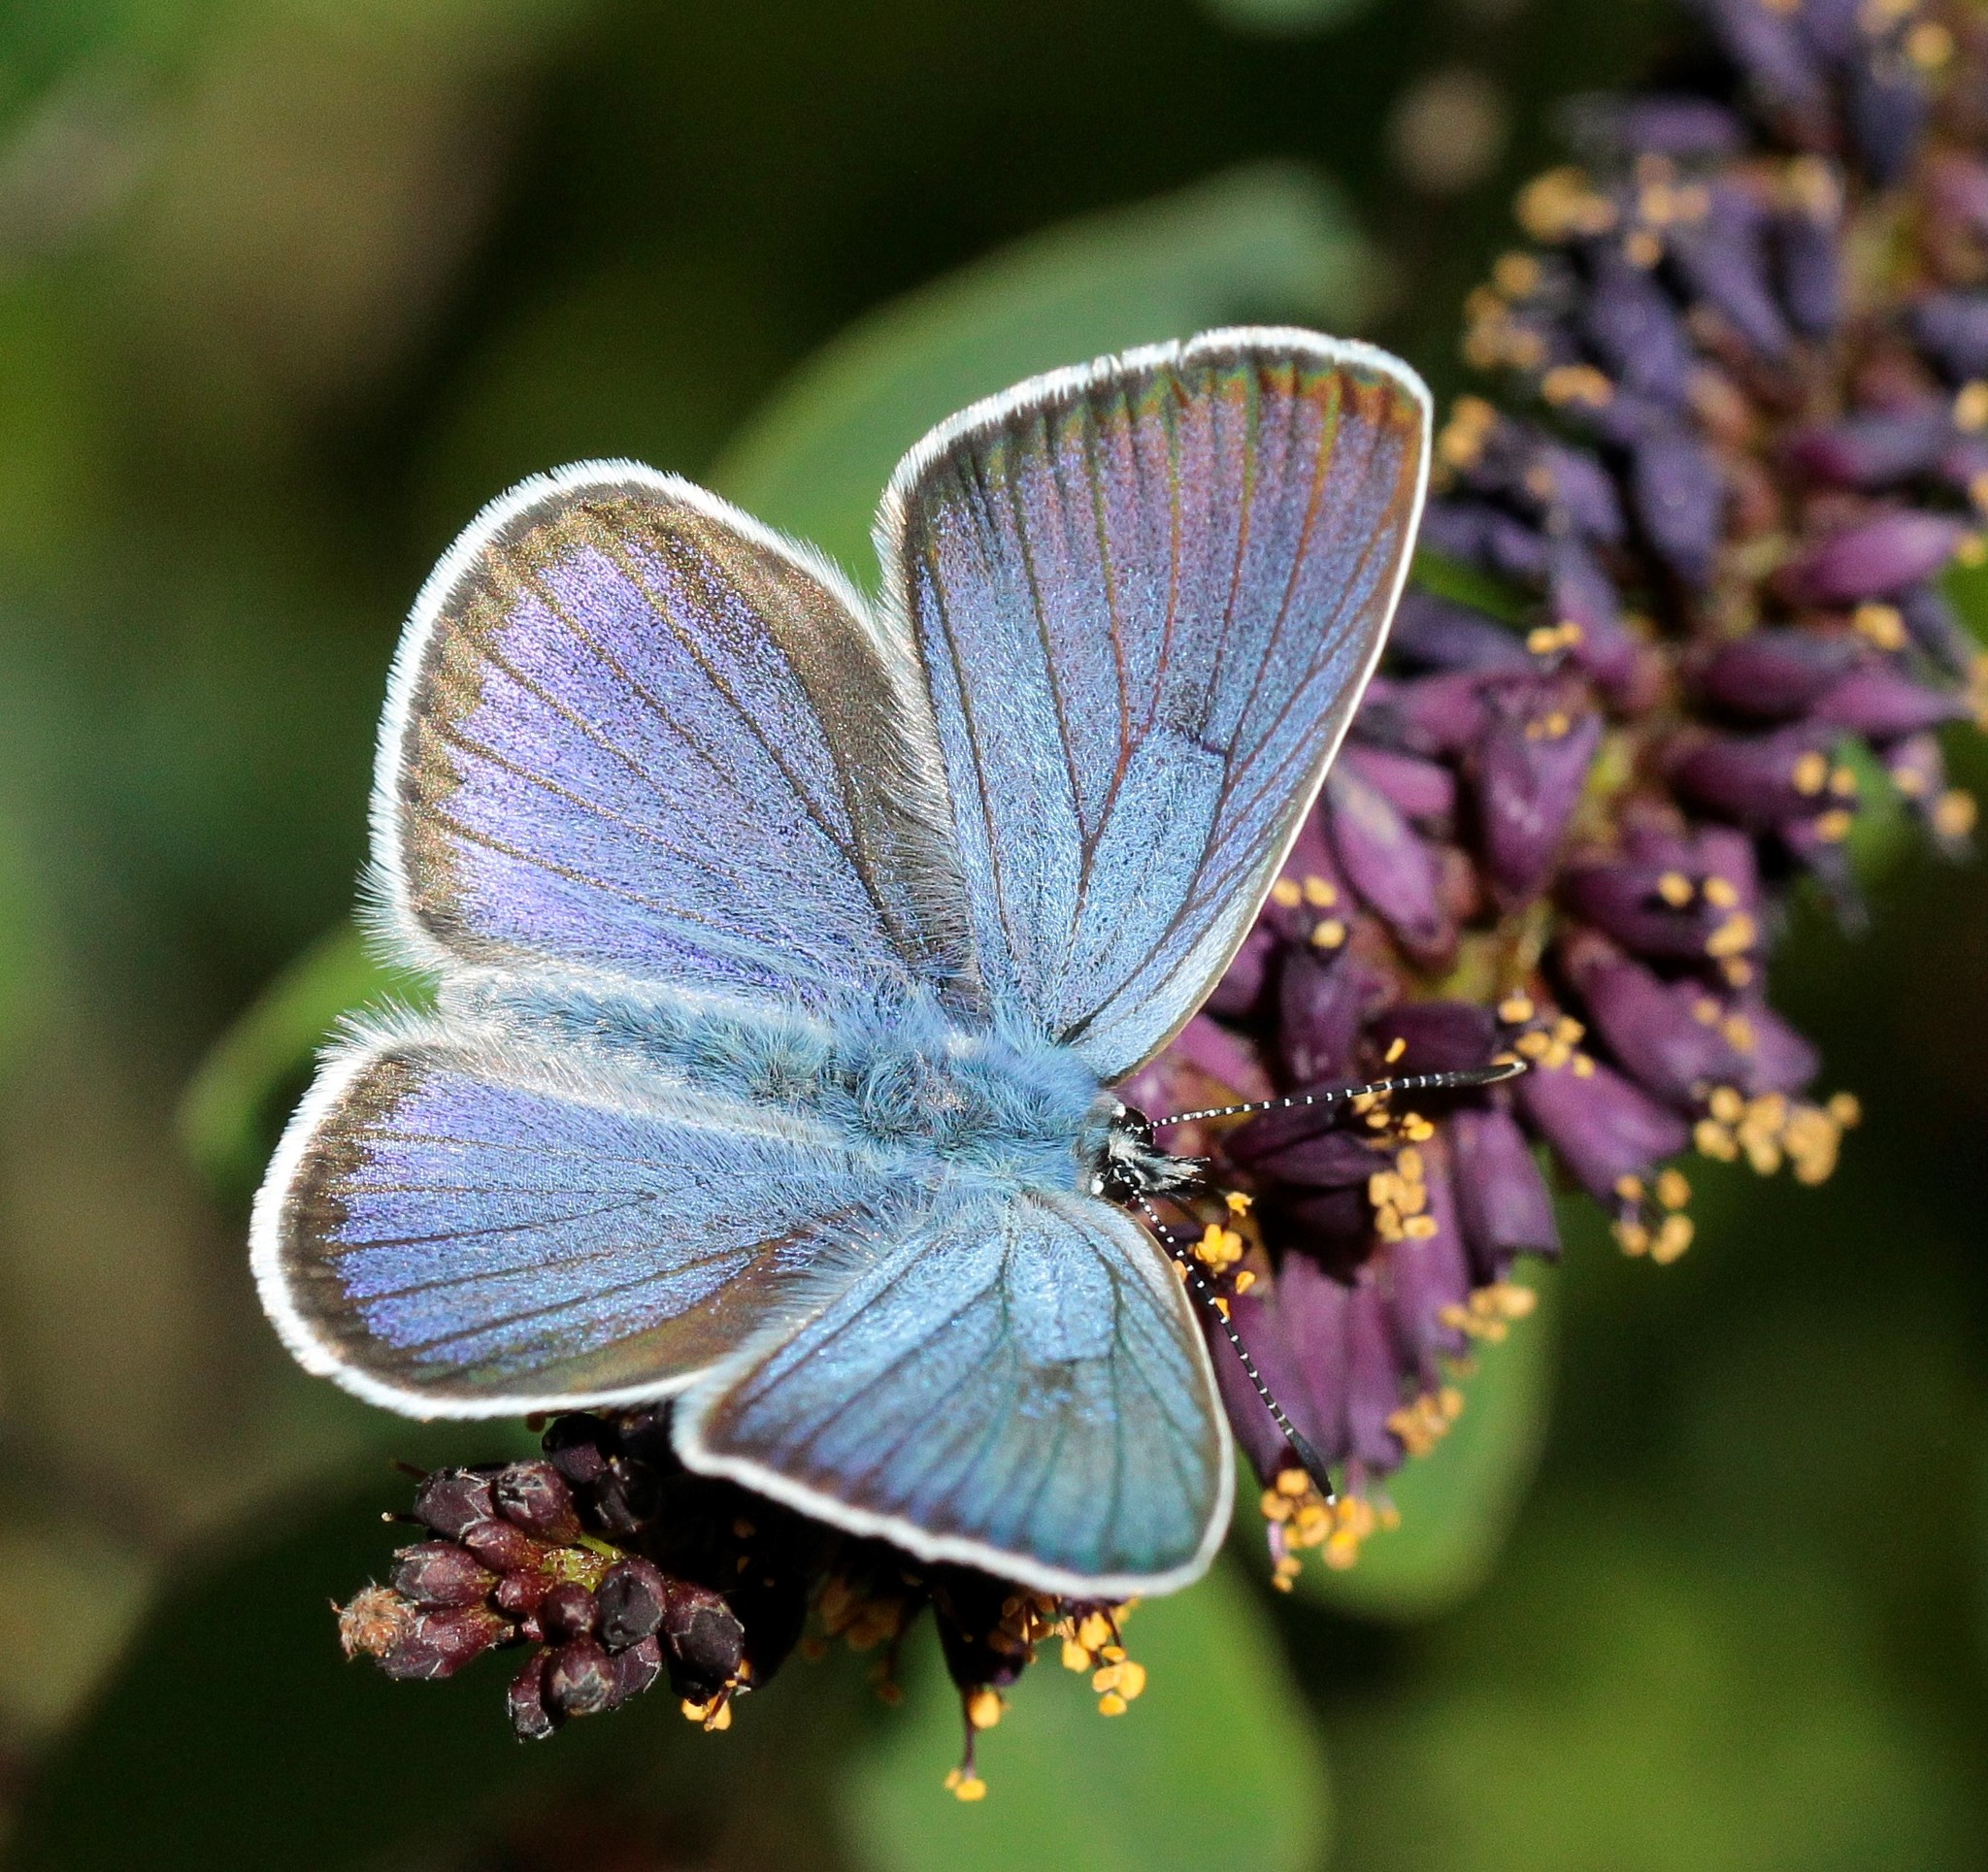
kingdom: Animalia
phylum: Arthropoda
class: Insecta
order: Lepidoptera
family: Lycaenidae
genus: Cyaniris
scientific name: Cyaniris semiargus
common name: Mazarine blue
